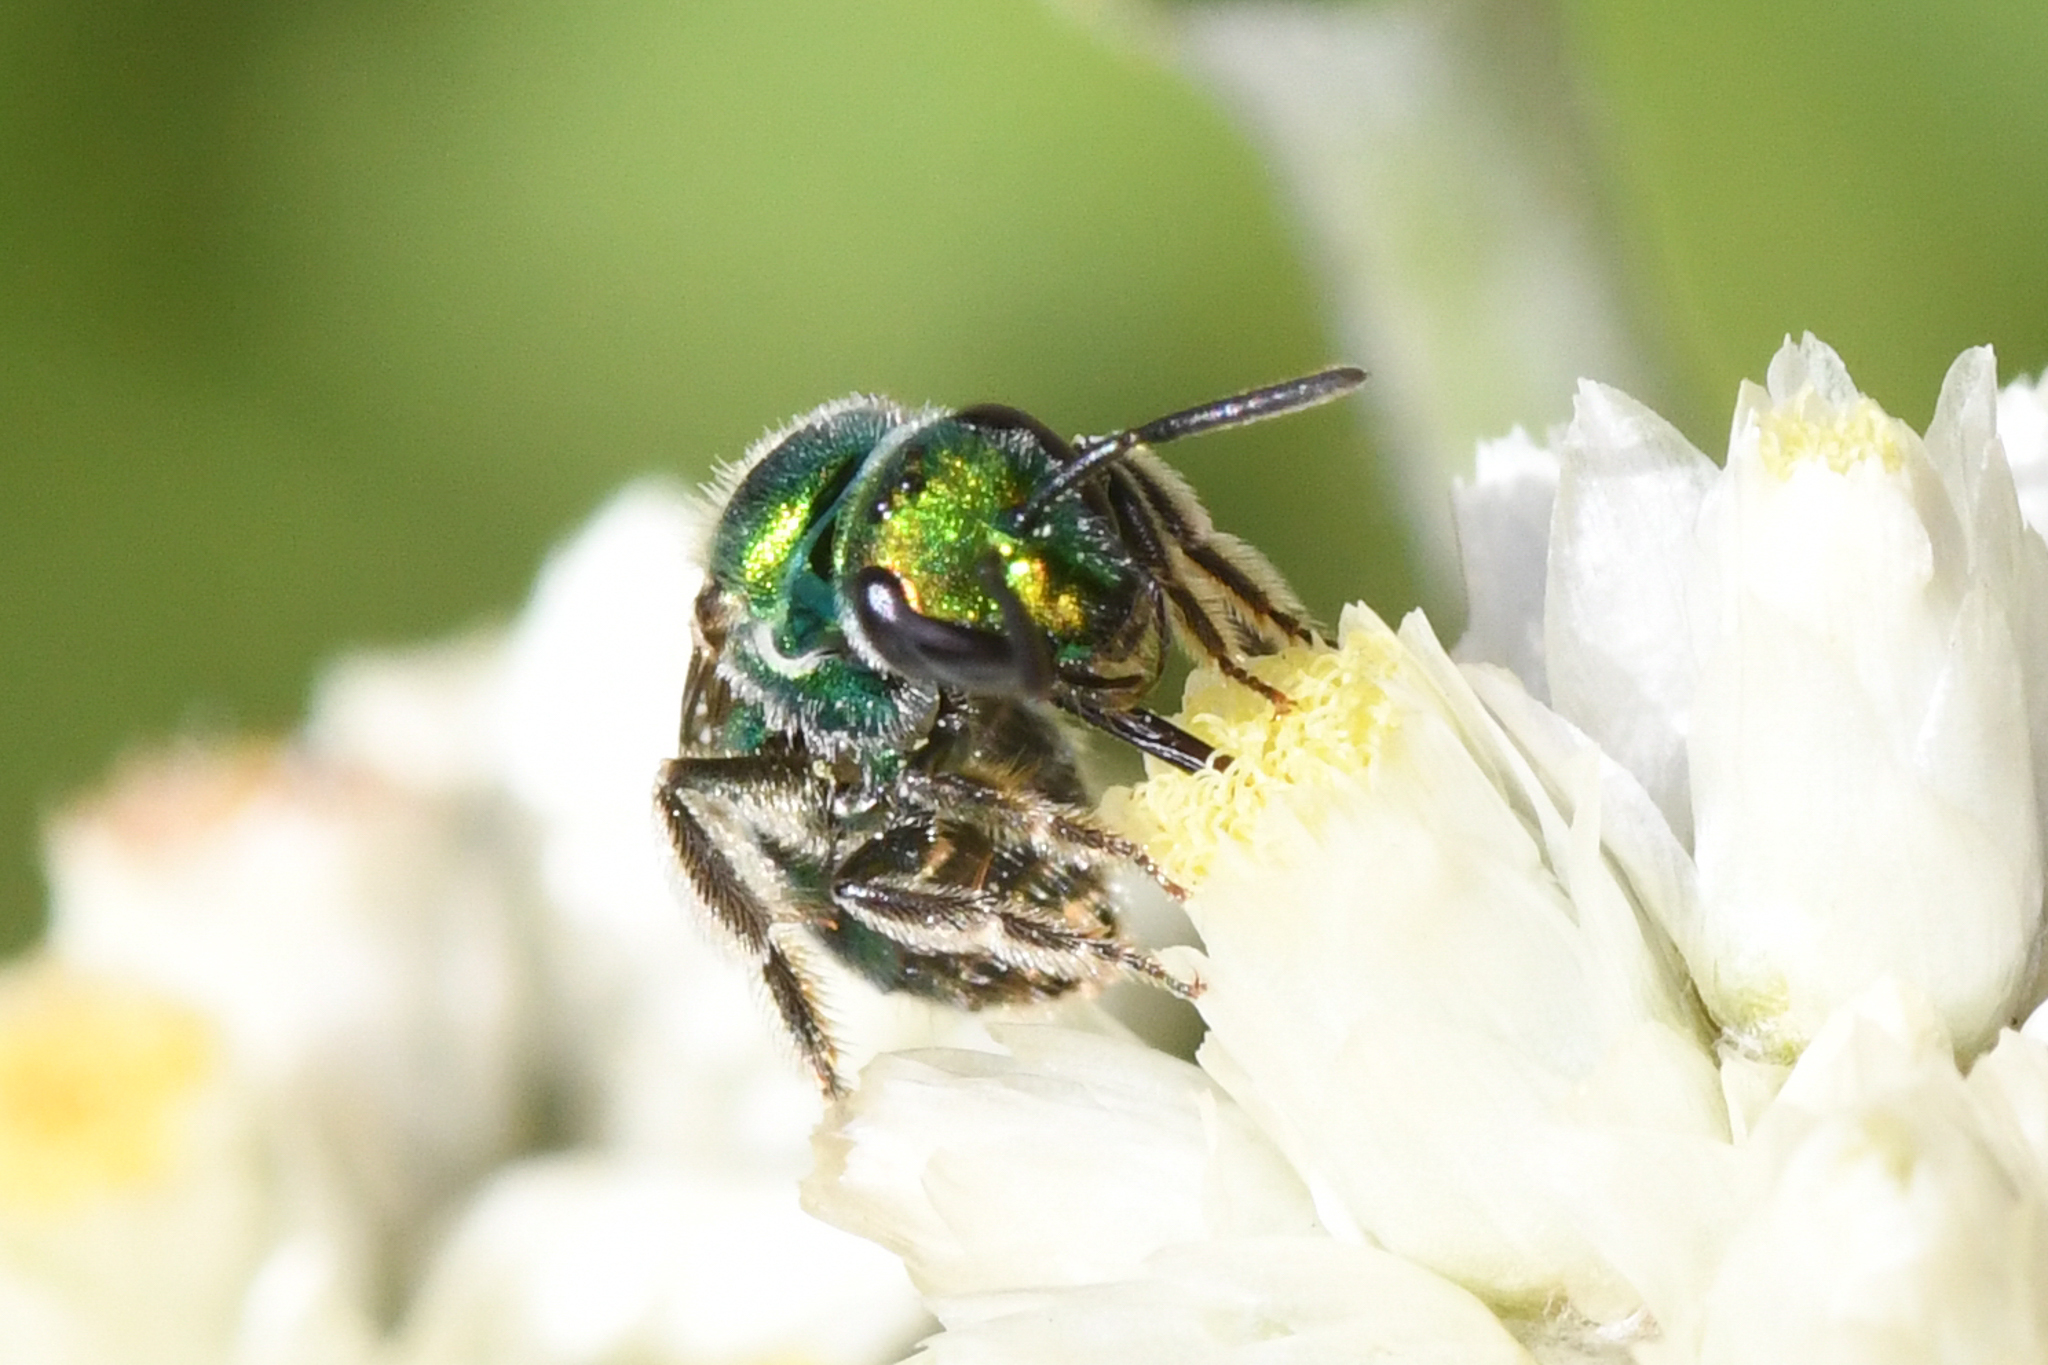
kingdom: Animalia
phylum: Arthropoda
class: Insecta
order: Hymenoptera
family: Halictidae
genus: Augochlorella
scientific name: Augochlorella pomoniella
